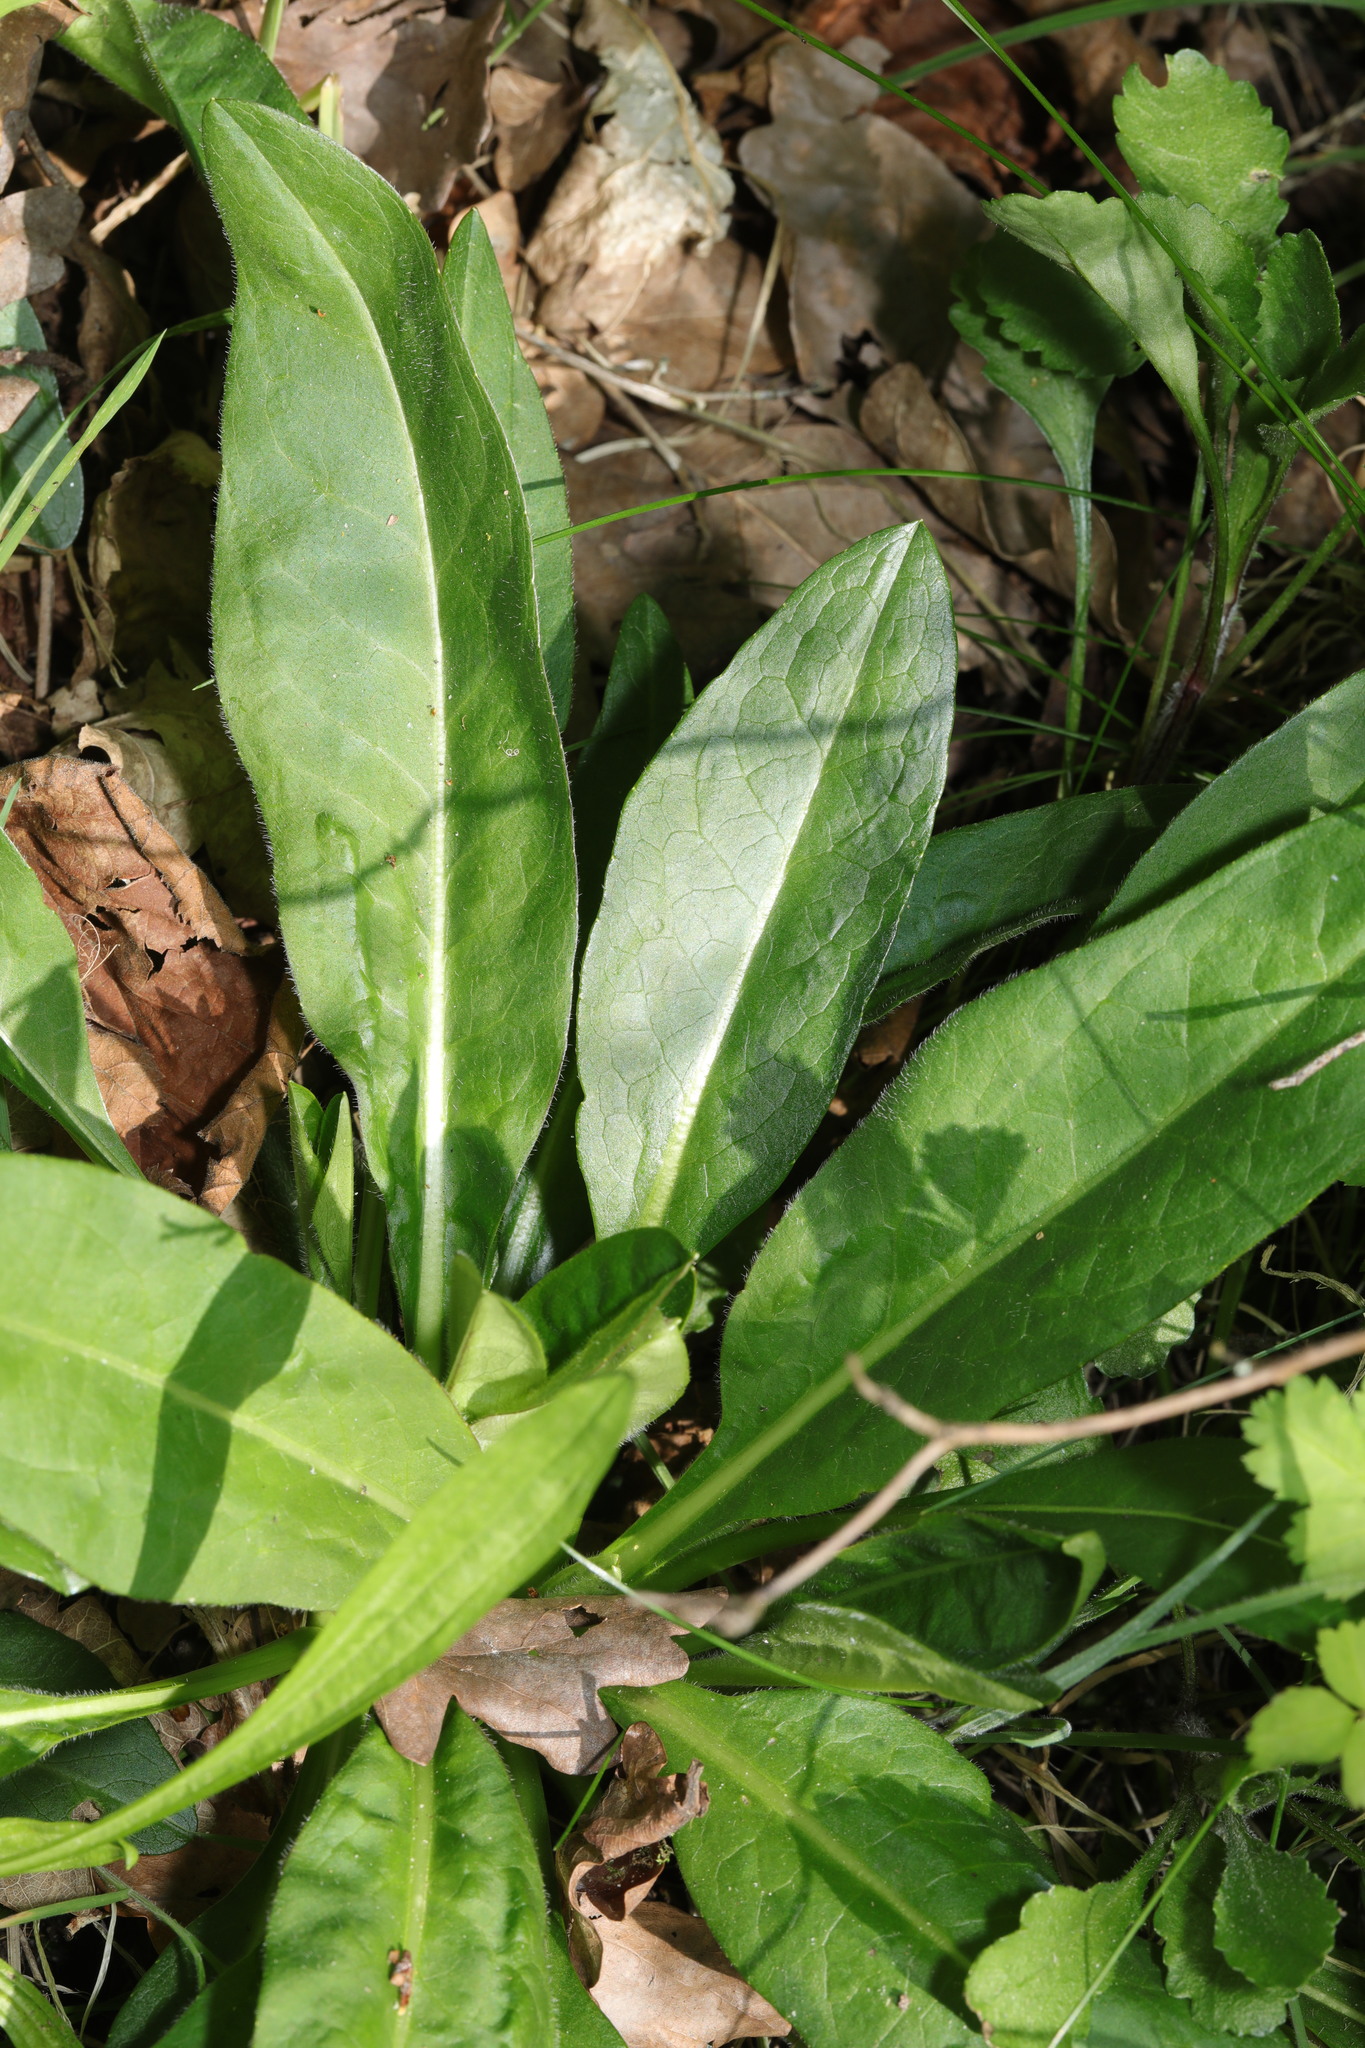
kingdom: Plantae
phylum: Tracheophyta
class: Magnoliopsida
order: Dipsacales
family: Caprifoliaceae
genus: Succisa
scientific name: Succisa pratensis
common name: Devil's-bit
